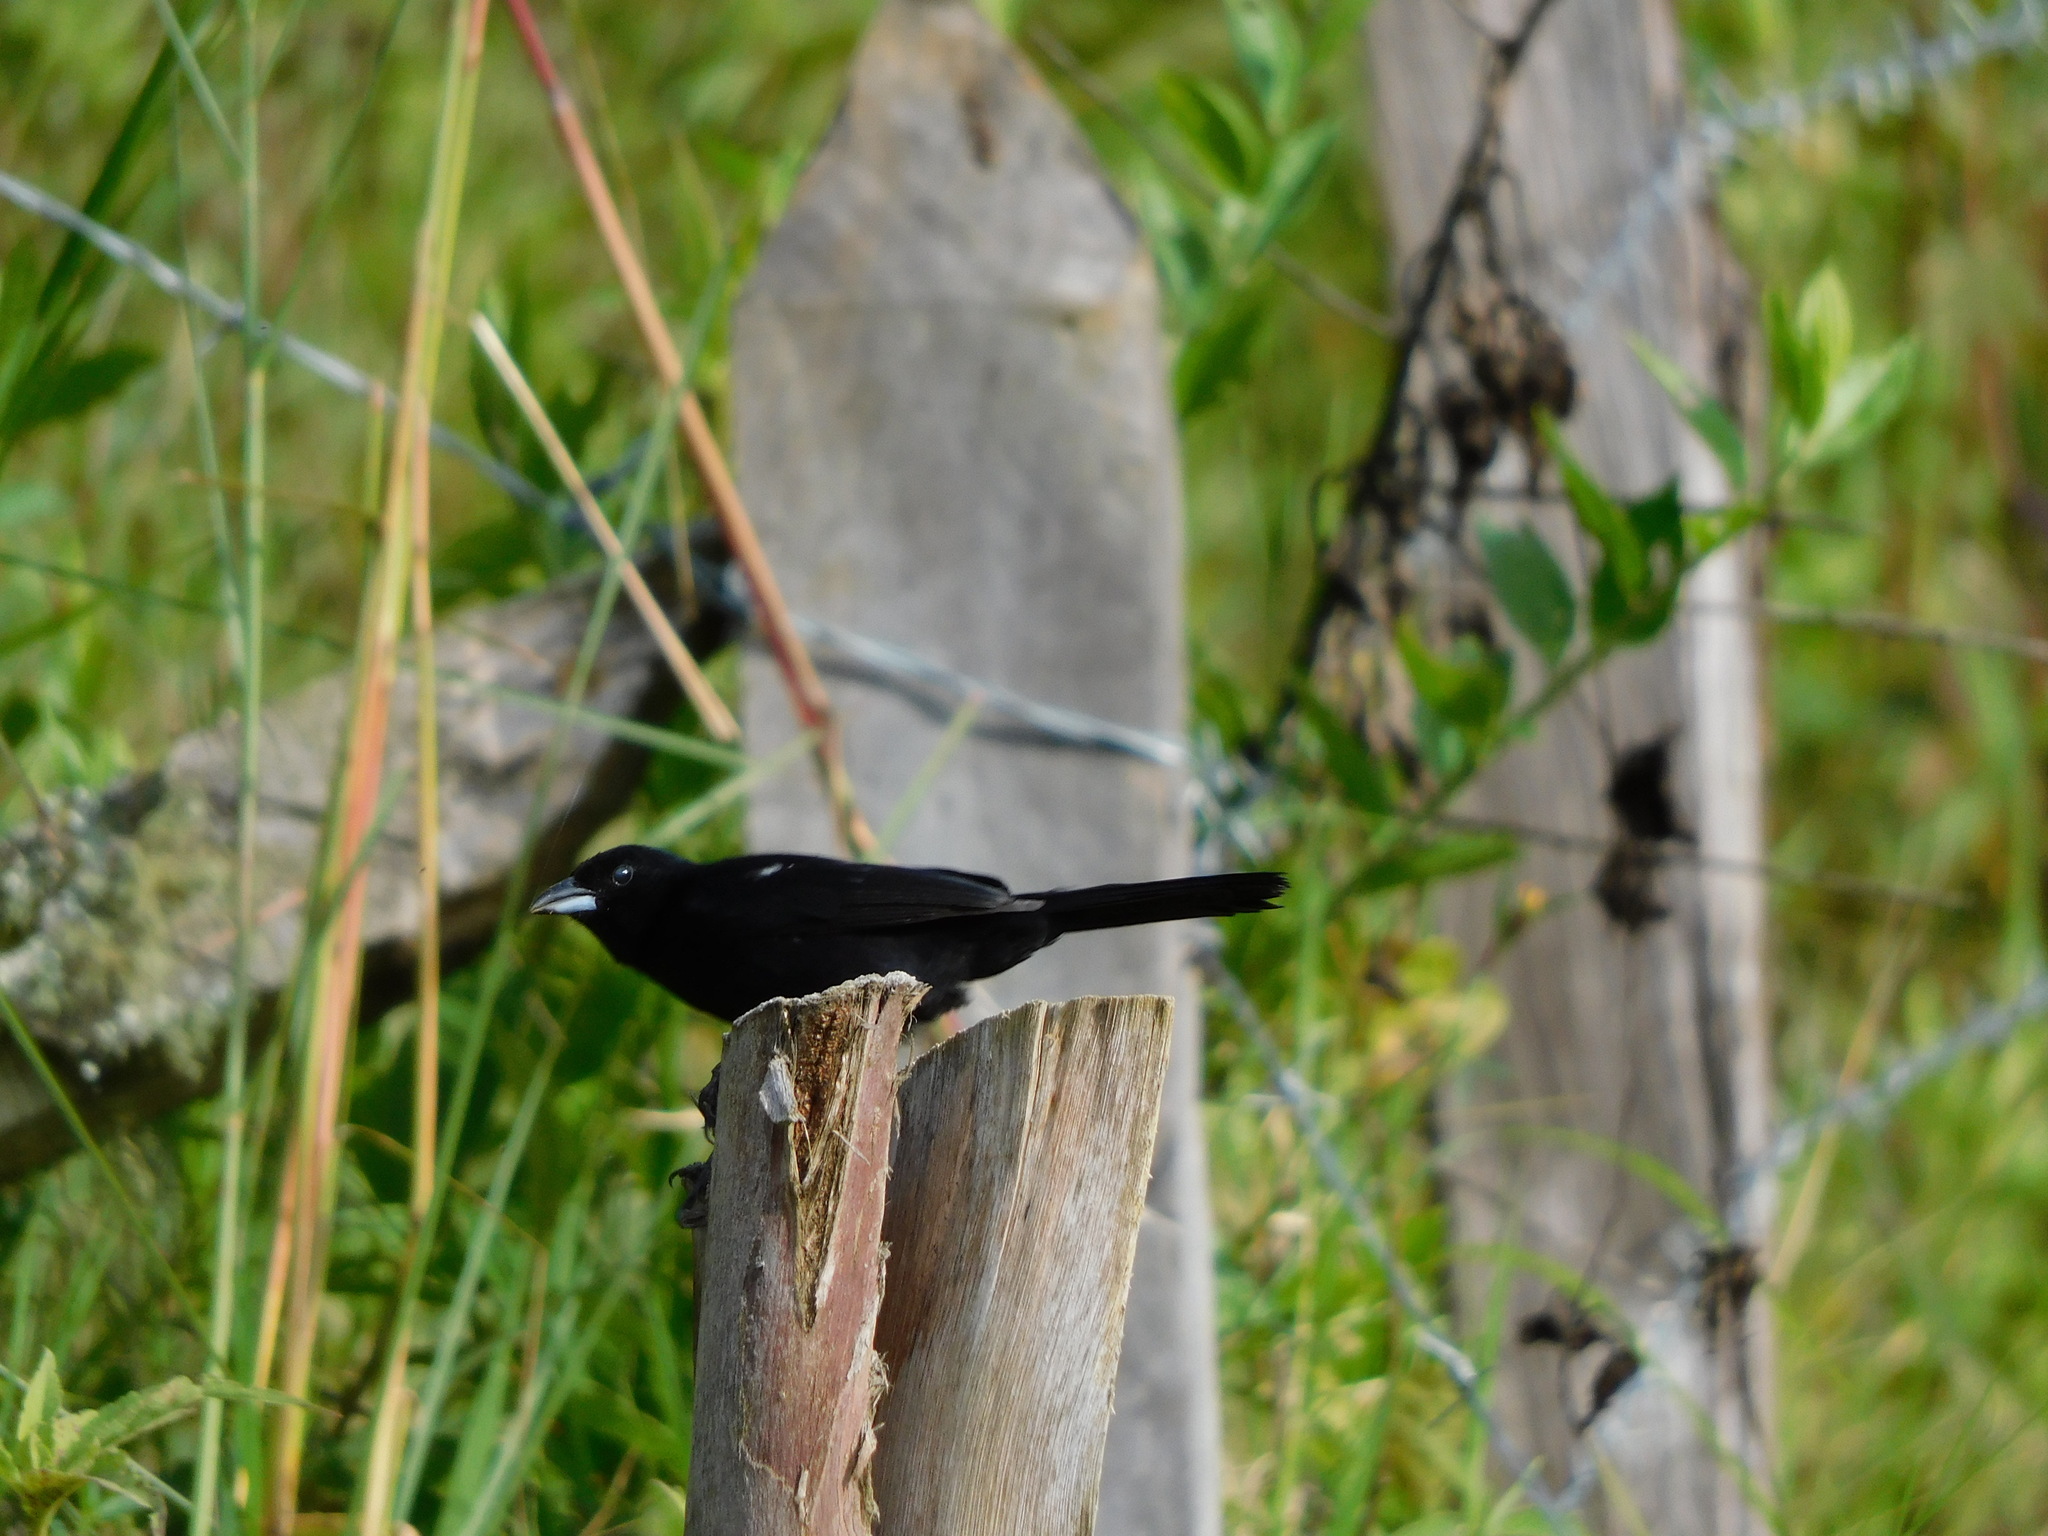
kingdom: Animalia
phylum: Chordata
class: Aves
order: Passeriformes
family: Thraupidae
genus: Tachyphonus
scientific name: Tachyphonus rufus
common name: White-lined tanager
